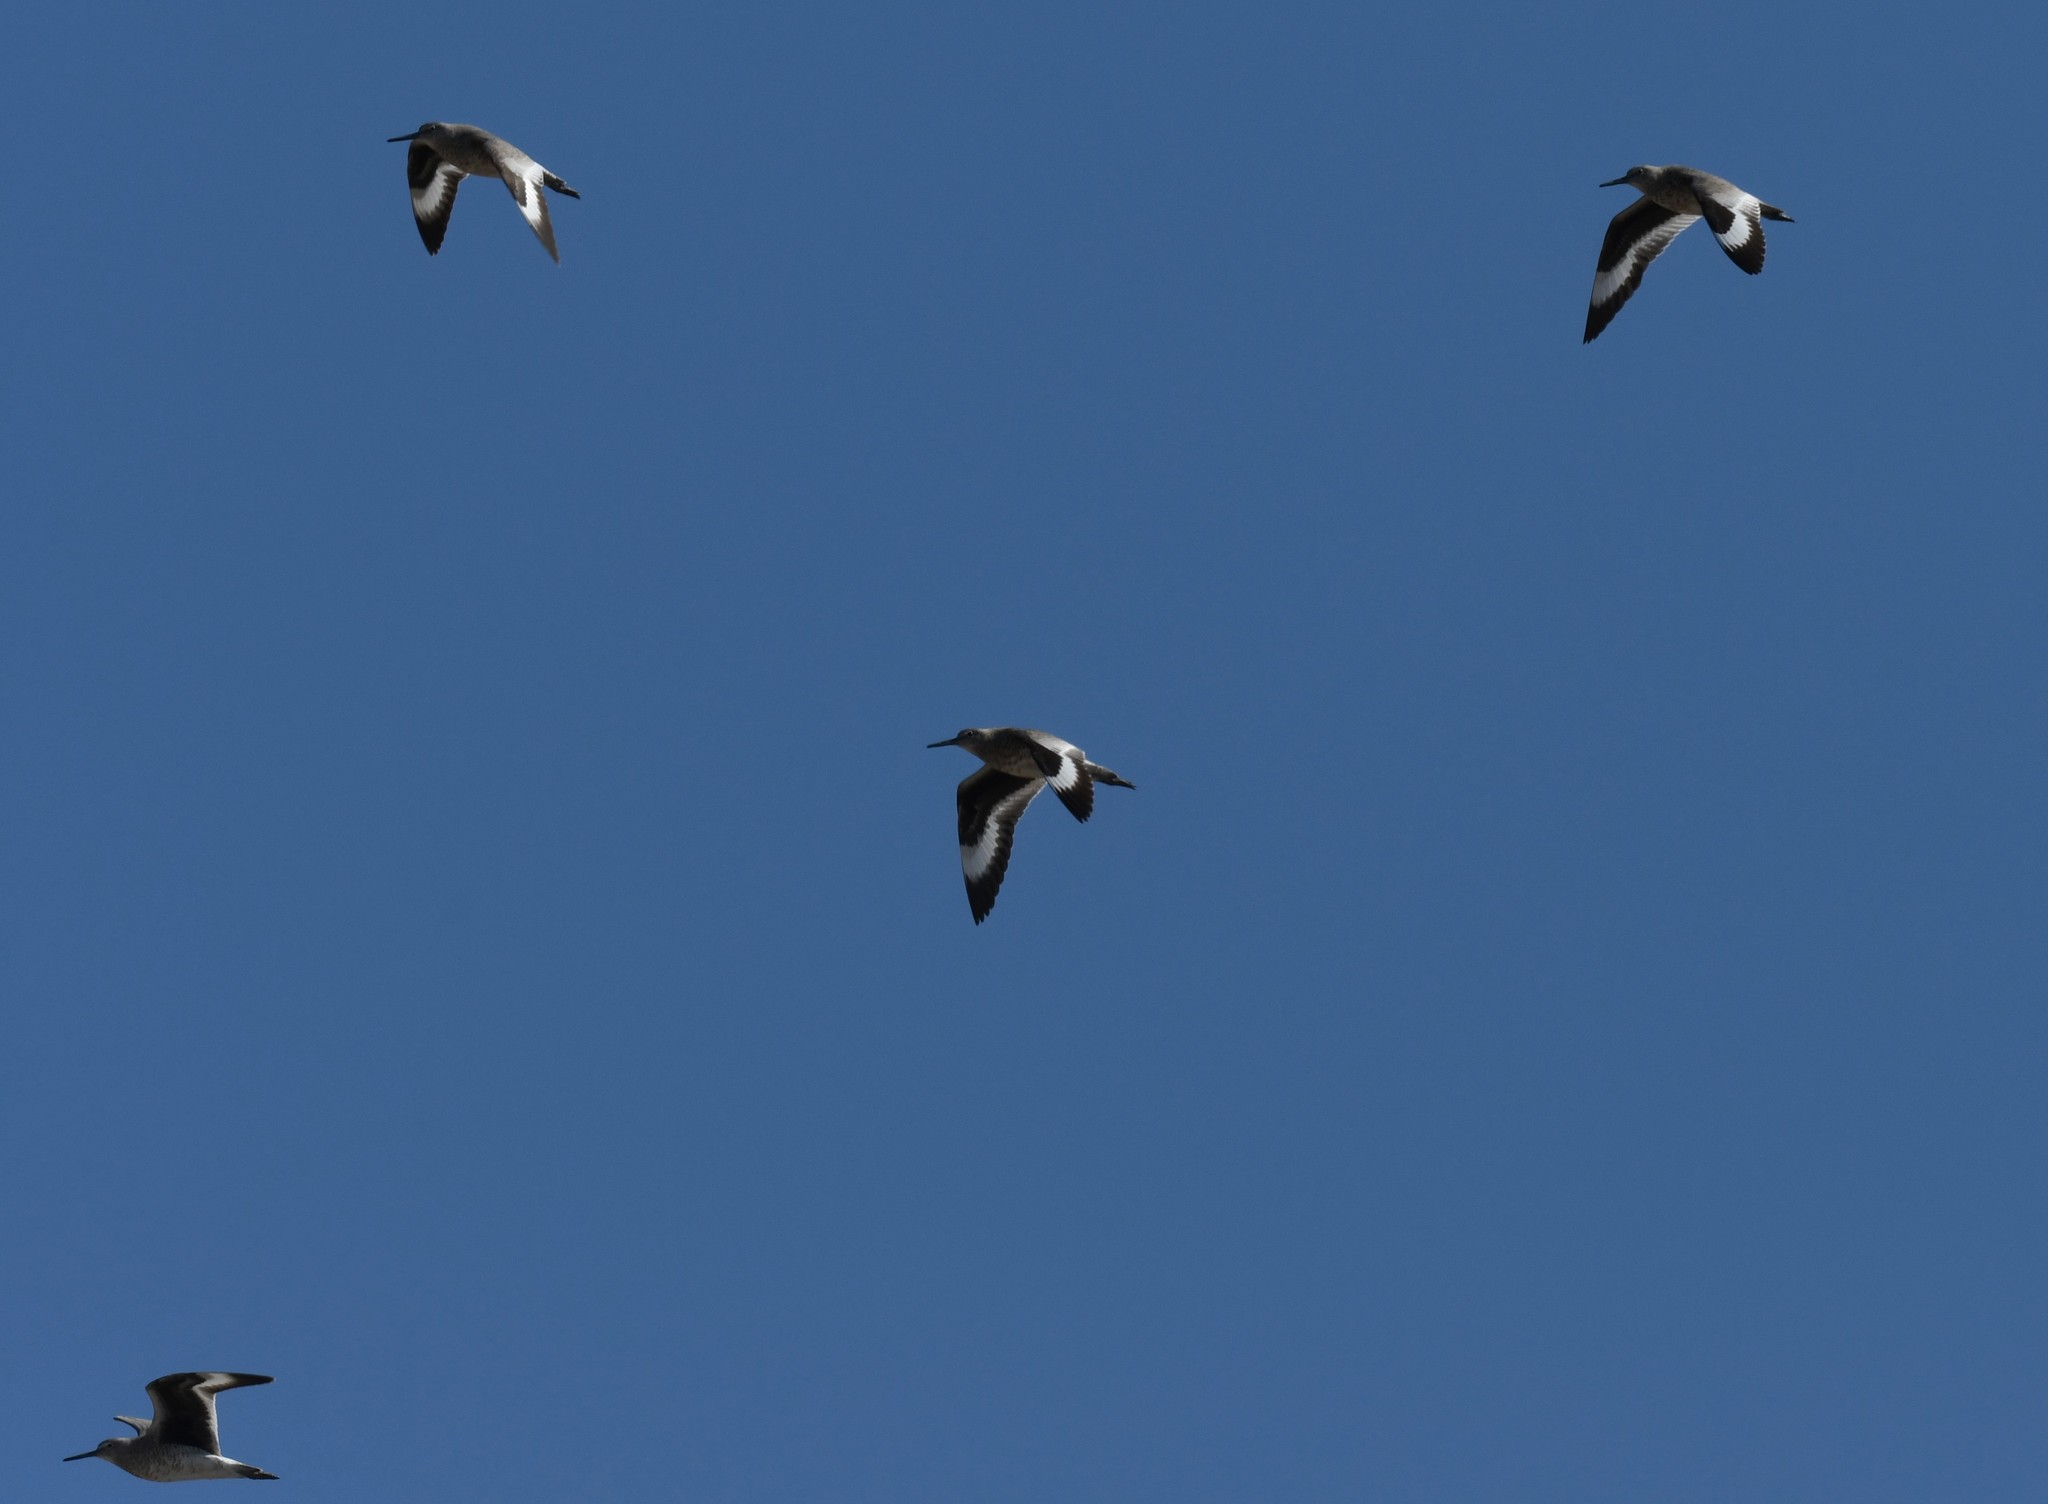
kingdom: Animalia
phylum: Chordata
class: Aves
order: Charadriiformes
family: Scolopacidae
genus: Tringa
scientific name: Tringa semipalmata
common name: Willet
